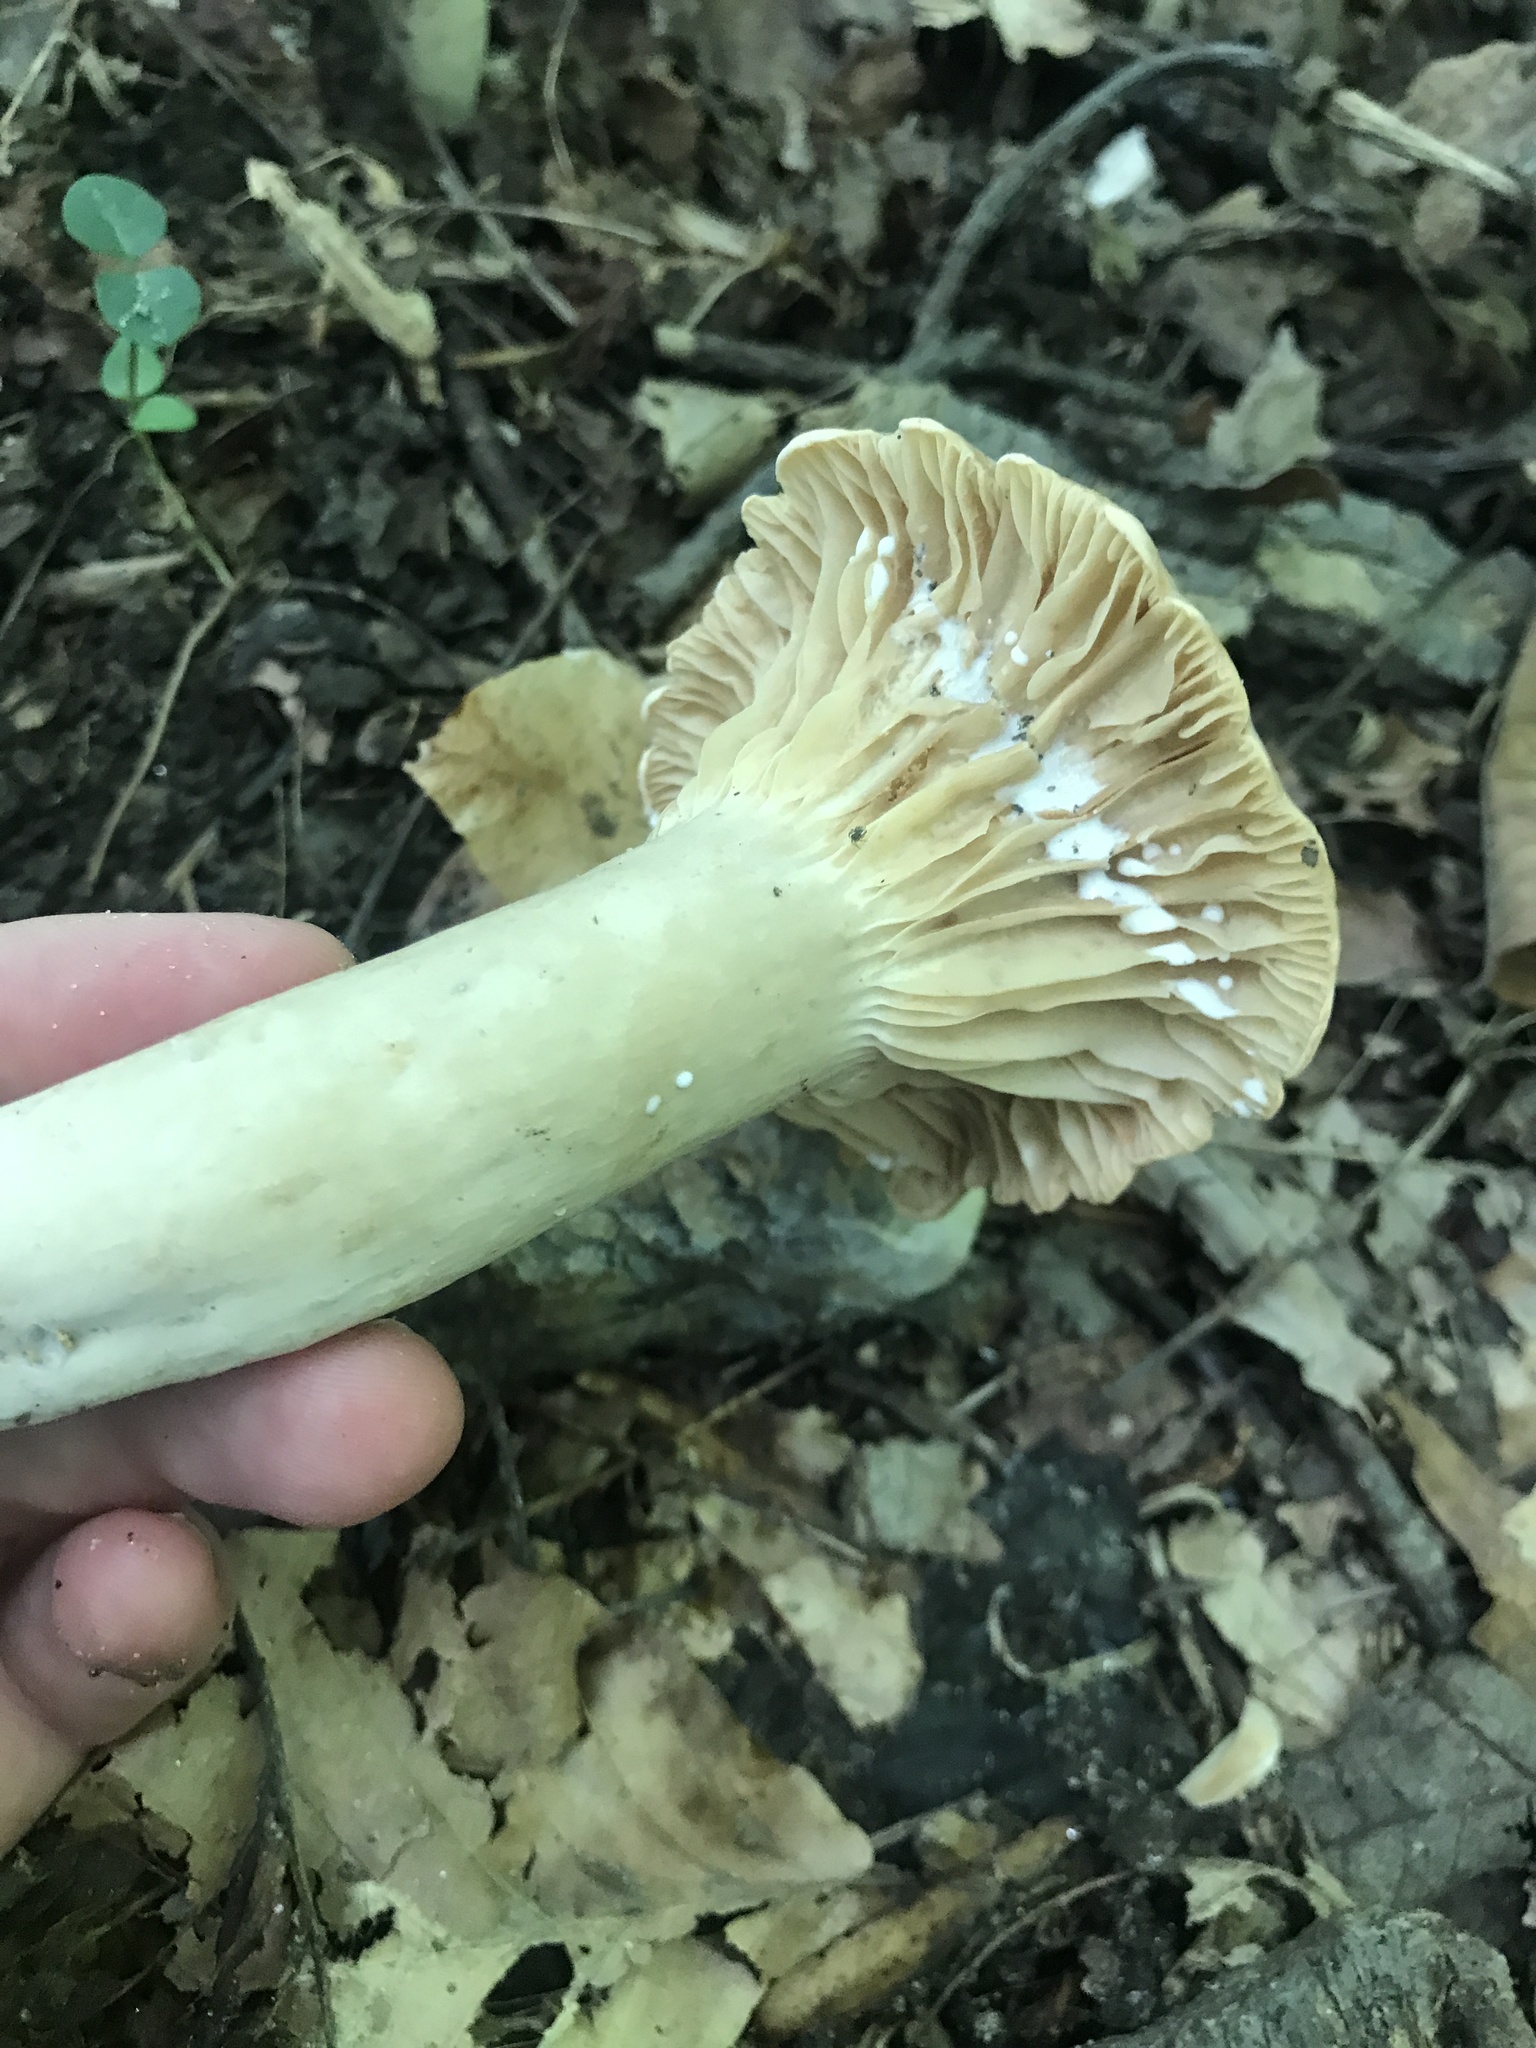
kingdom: Fungi
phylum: Basidiomycota
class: Agaricomycetes
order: Russulales
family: Russulaceae
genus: Lactarius
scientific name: Lactarius subplinthogalus
